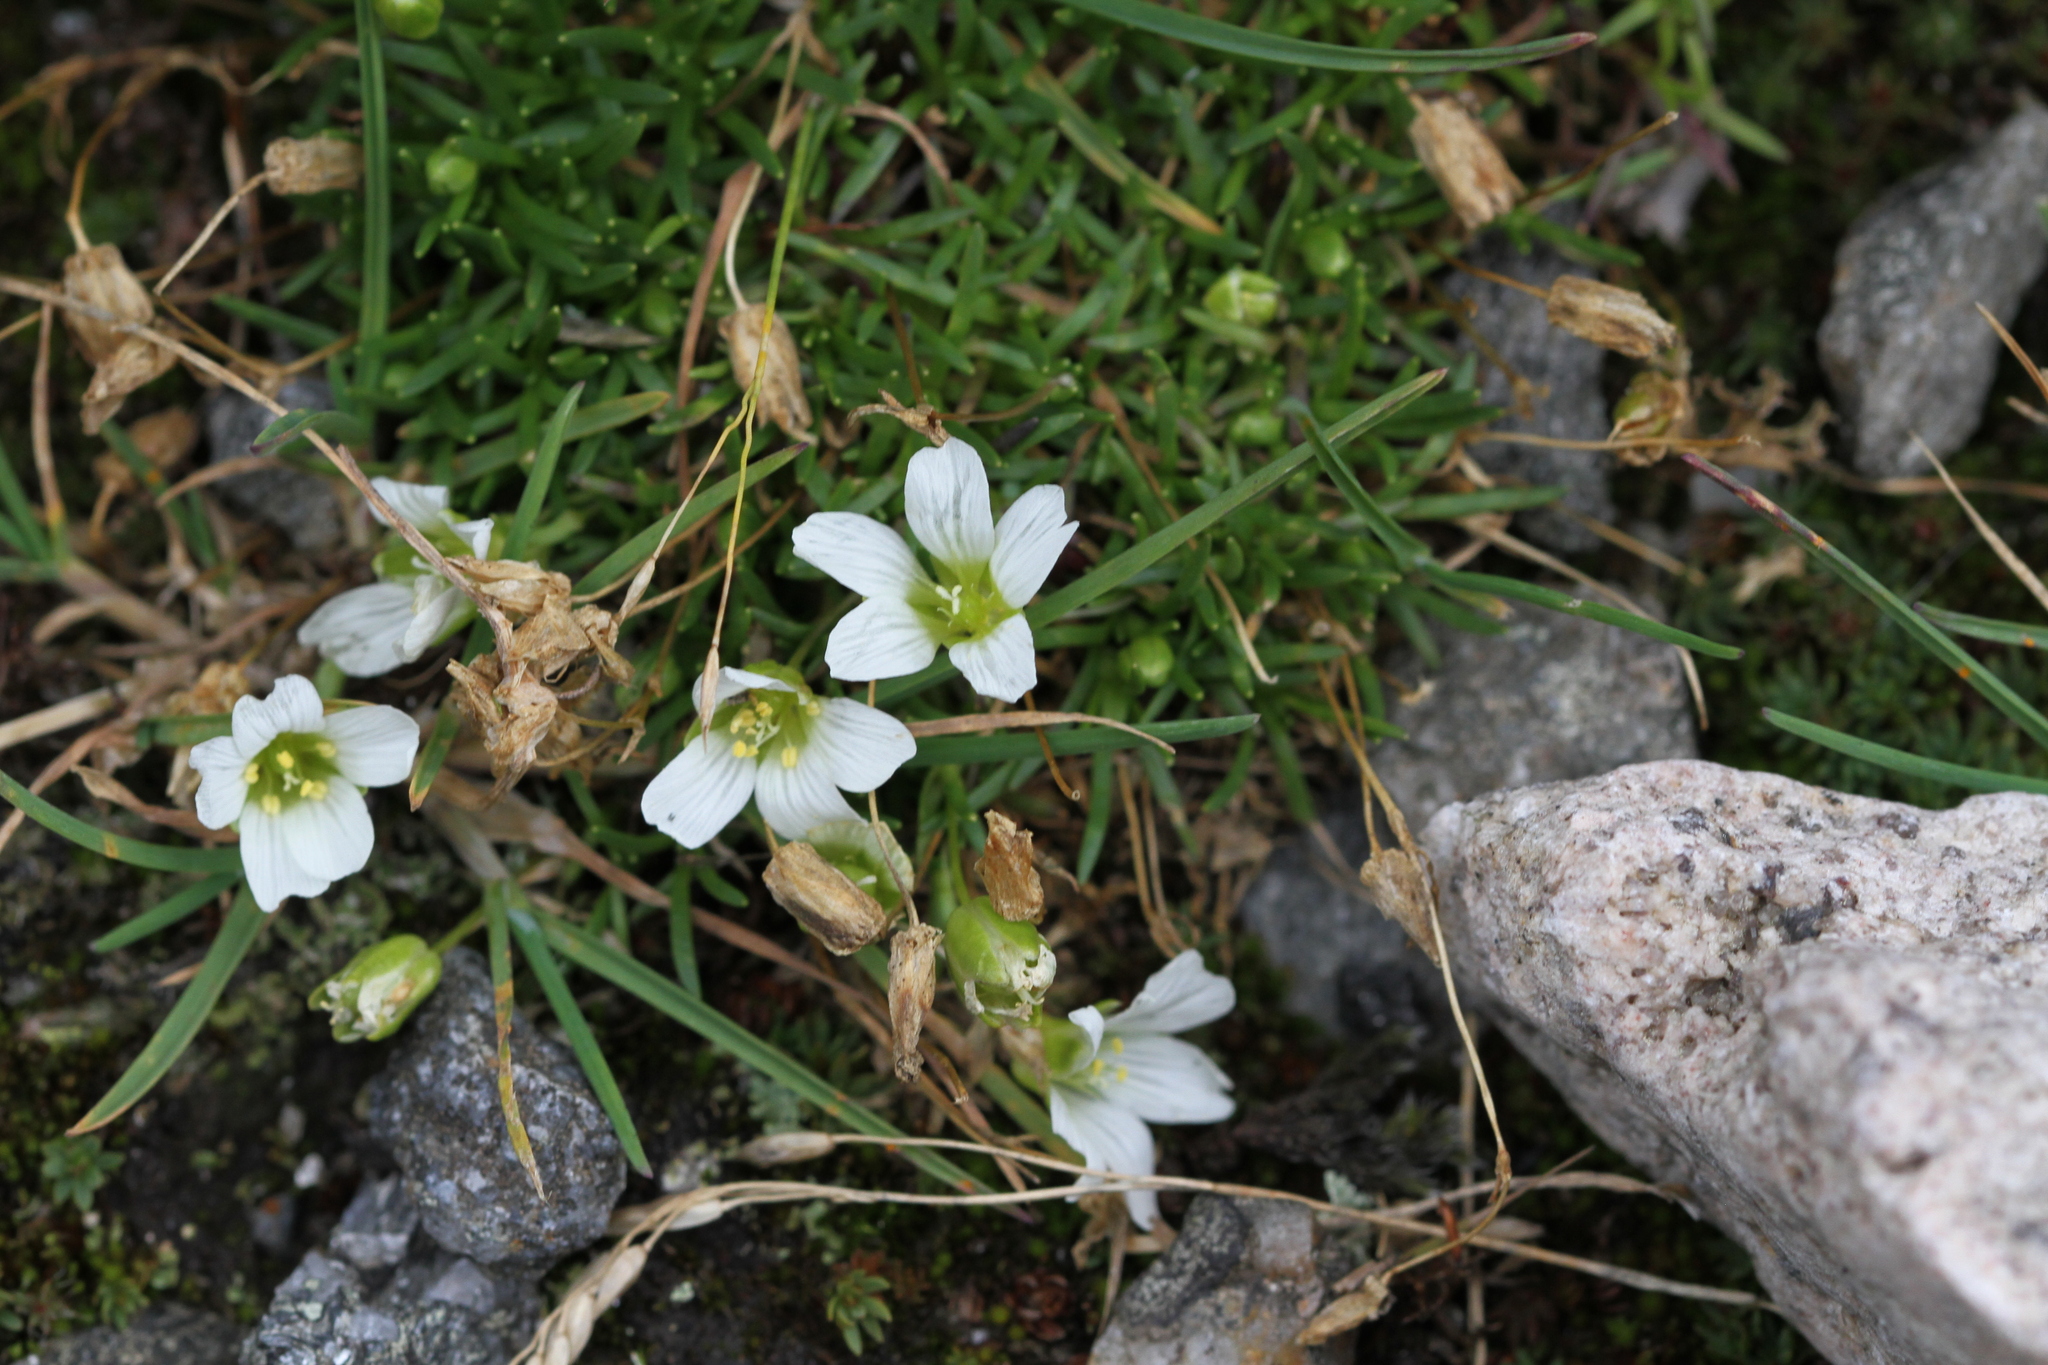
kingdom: Plantae
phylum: Tracheophyta
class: Magnoliopsida
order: Caryophyllales
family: Caryophyllaceae
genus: Geocarpon
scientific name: Geocarpon groenlandicum
